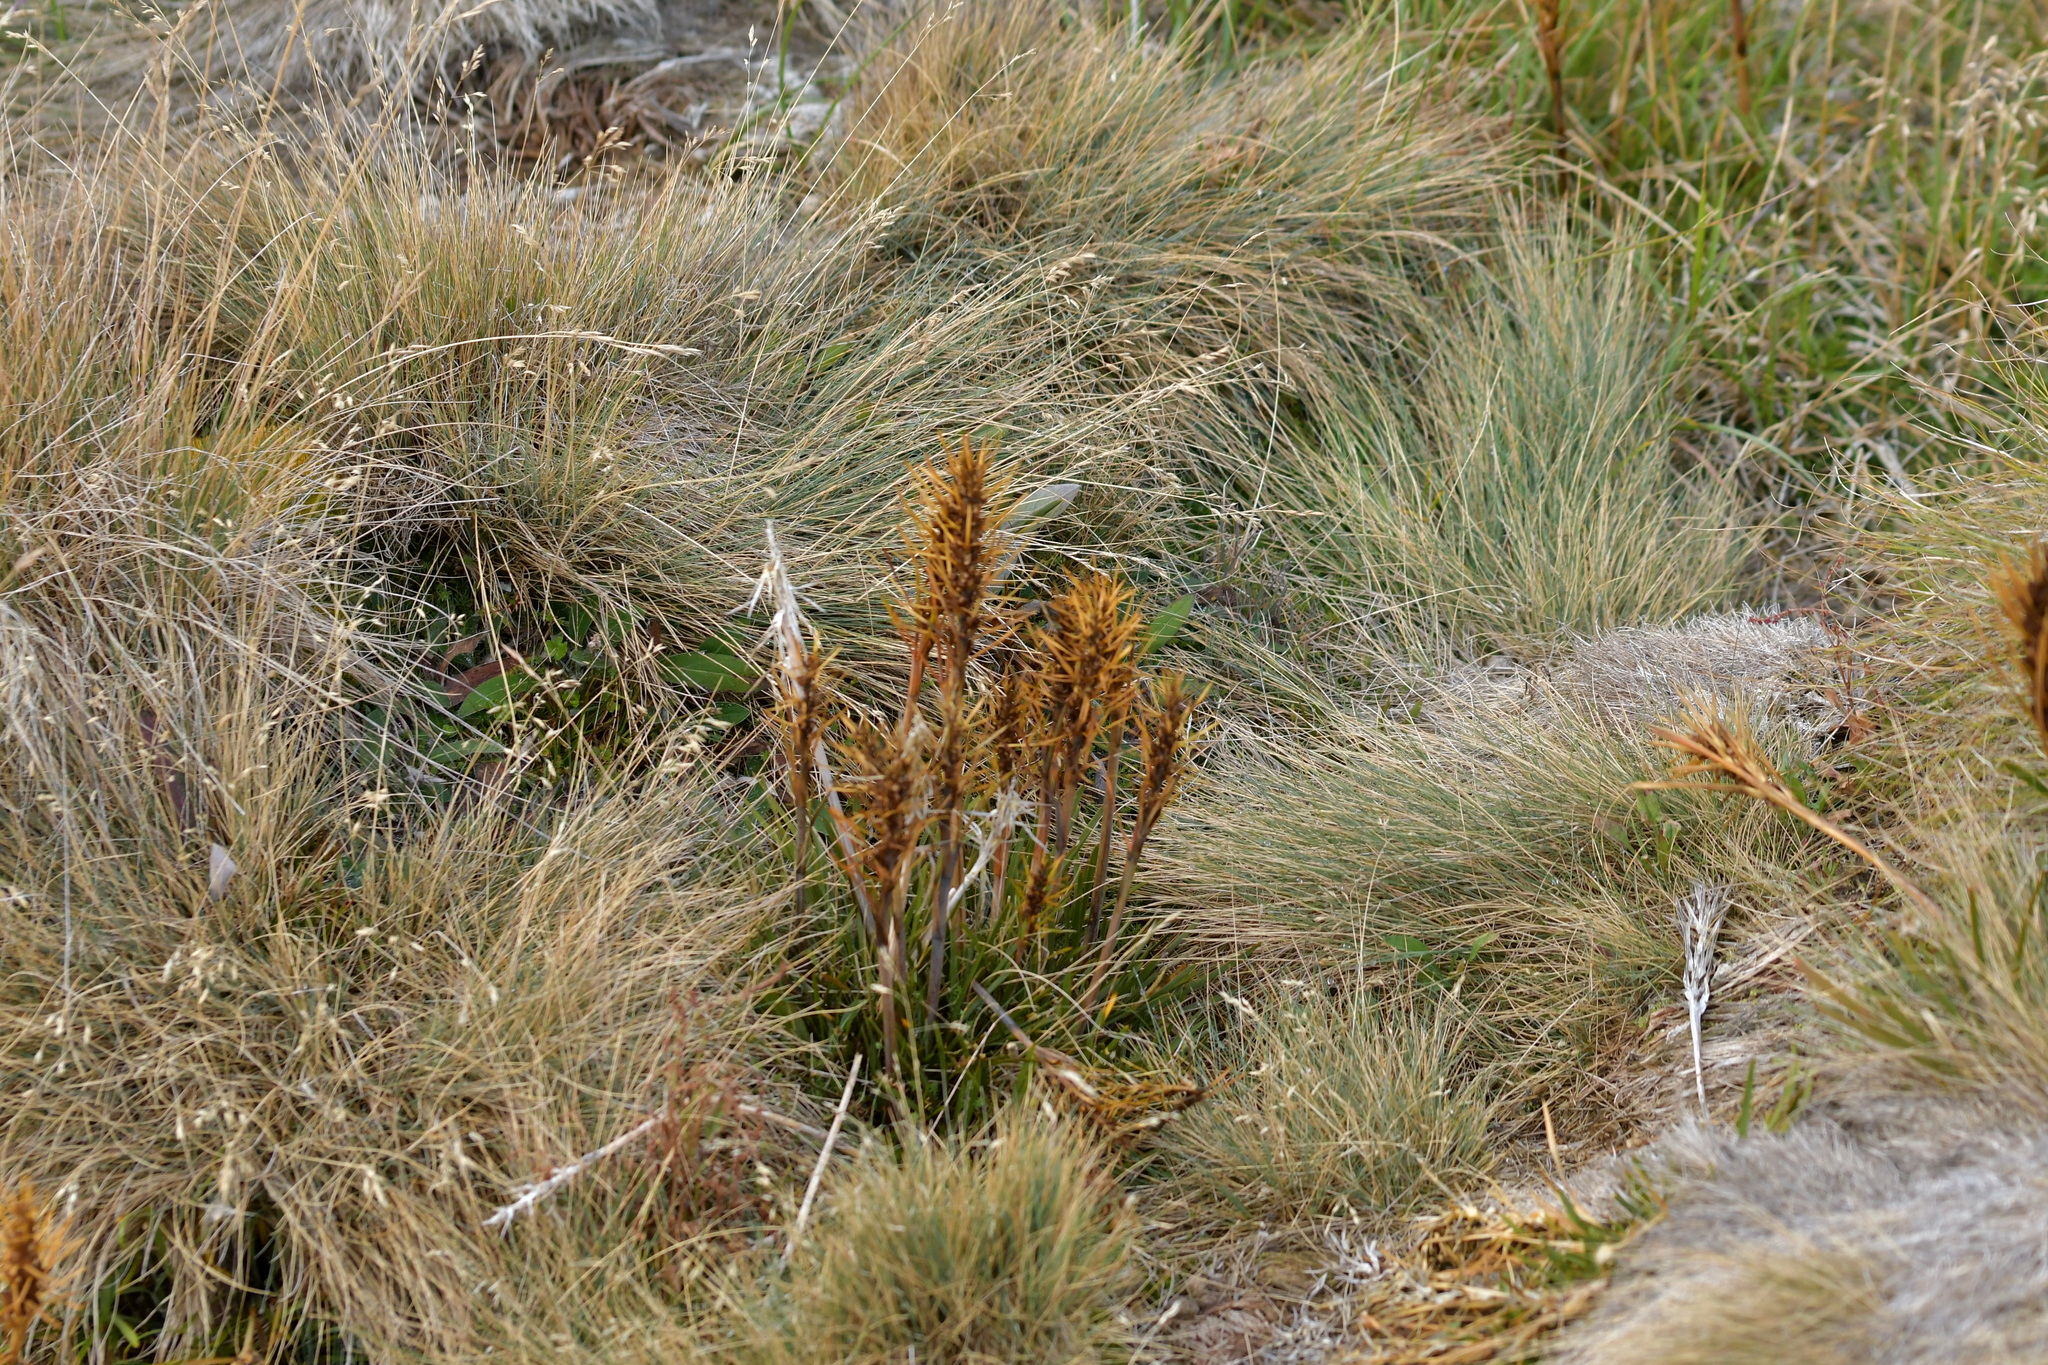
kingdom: Plantae
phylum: Tracheophyta
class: Magnoliopsida
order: Apiales
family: Apiaceae
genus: Aciphylla
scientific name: Aciphylla verticillata
